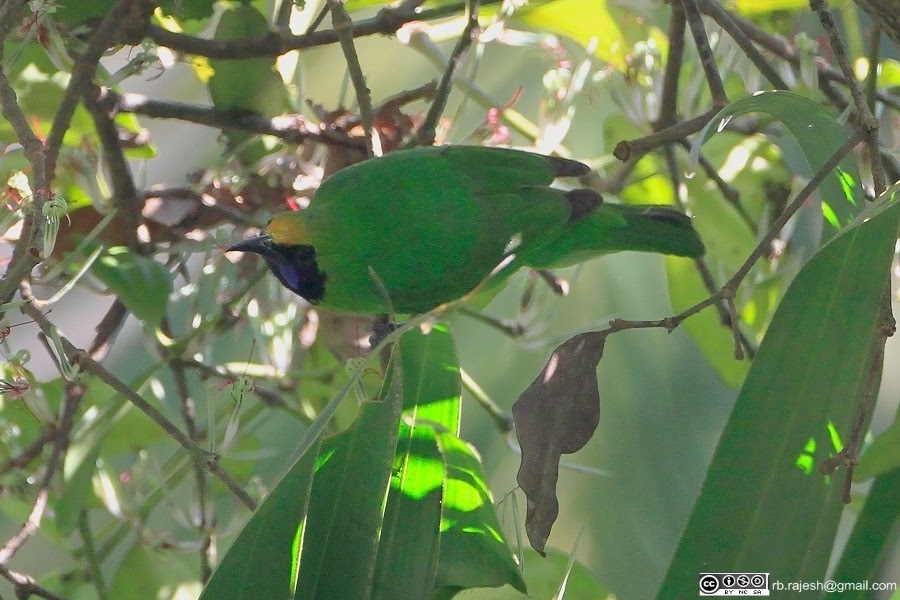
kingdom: Animalia
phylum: Chordata
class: Aves
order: Passeriformes
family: Chloropseidae
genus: Chloropsis
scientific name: Chloropsis aurifrons
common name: Golden-fronted leafbird
